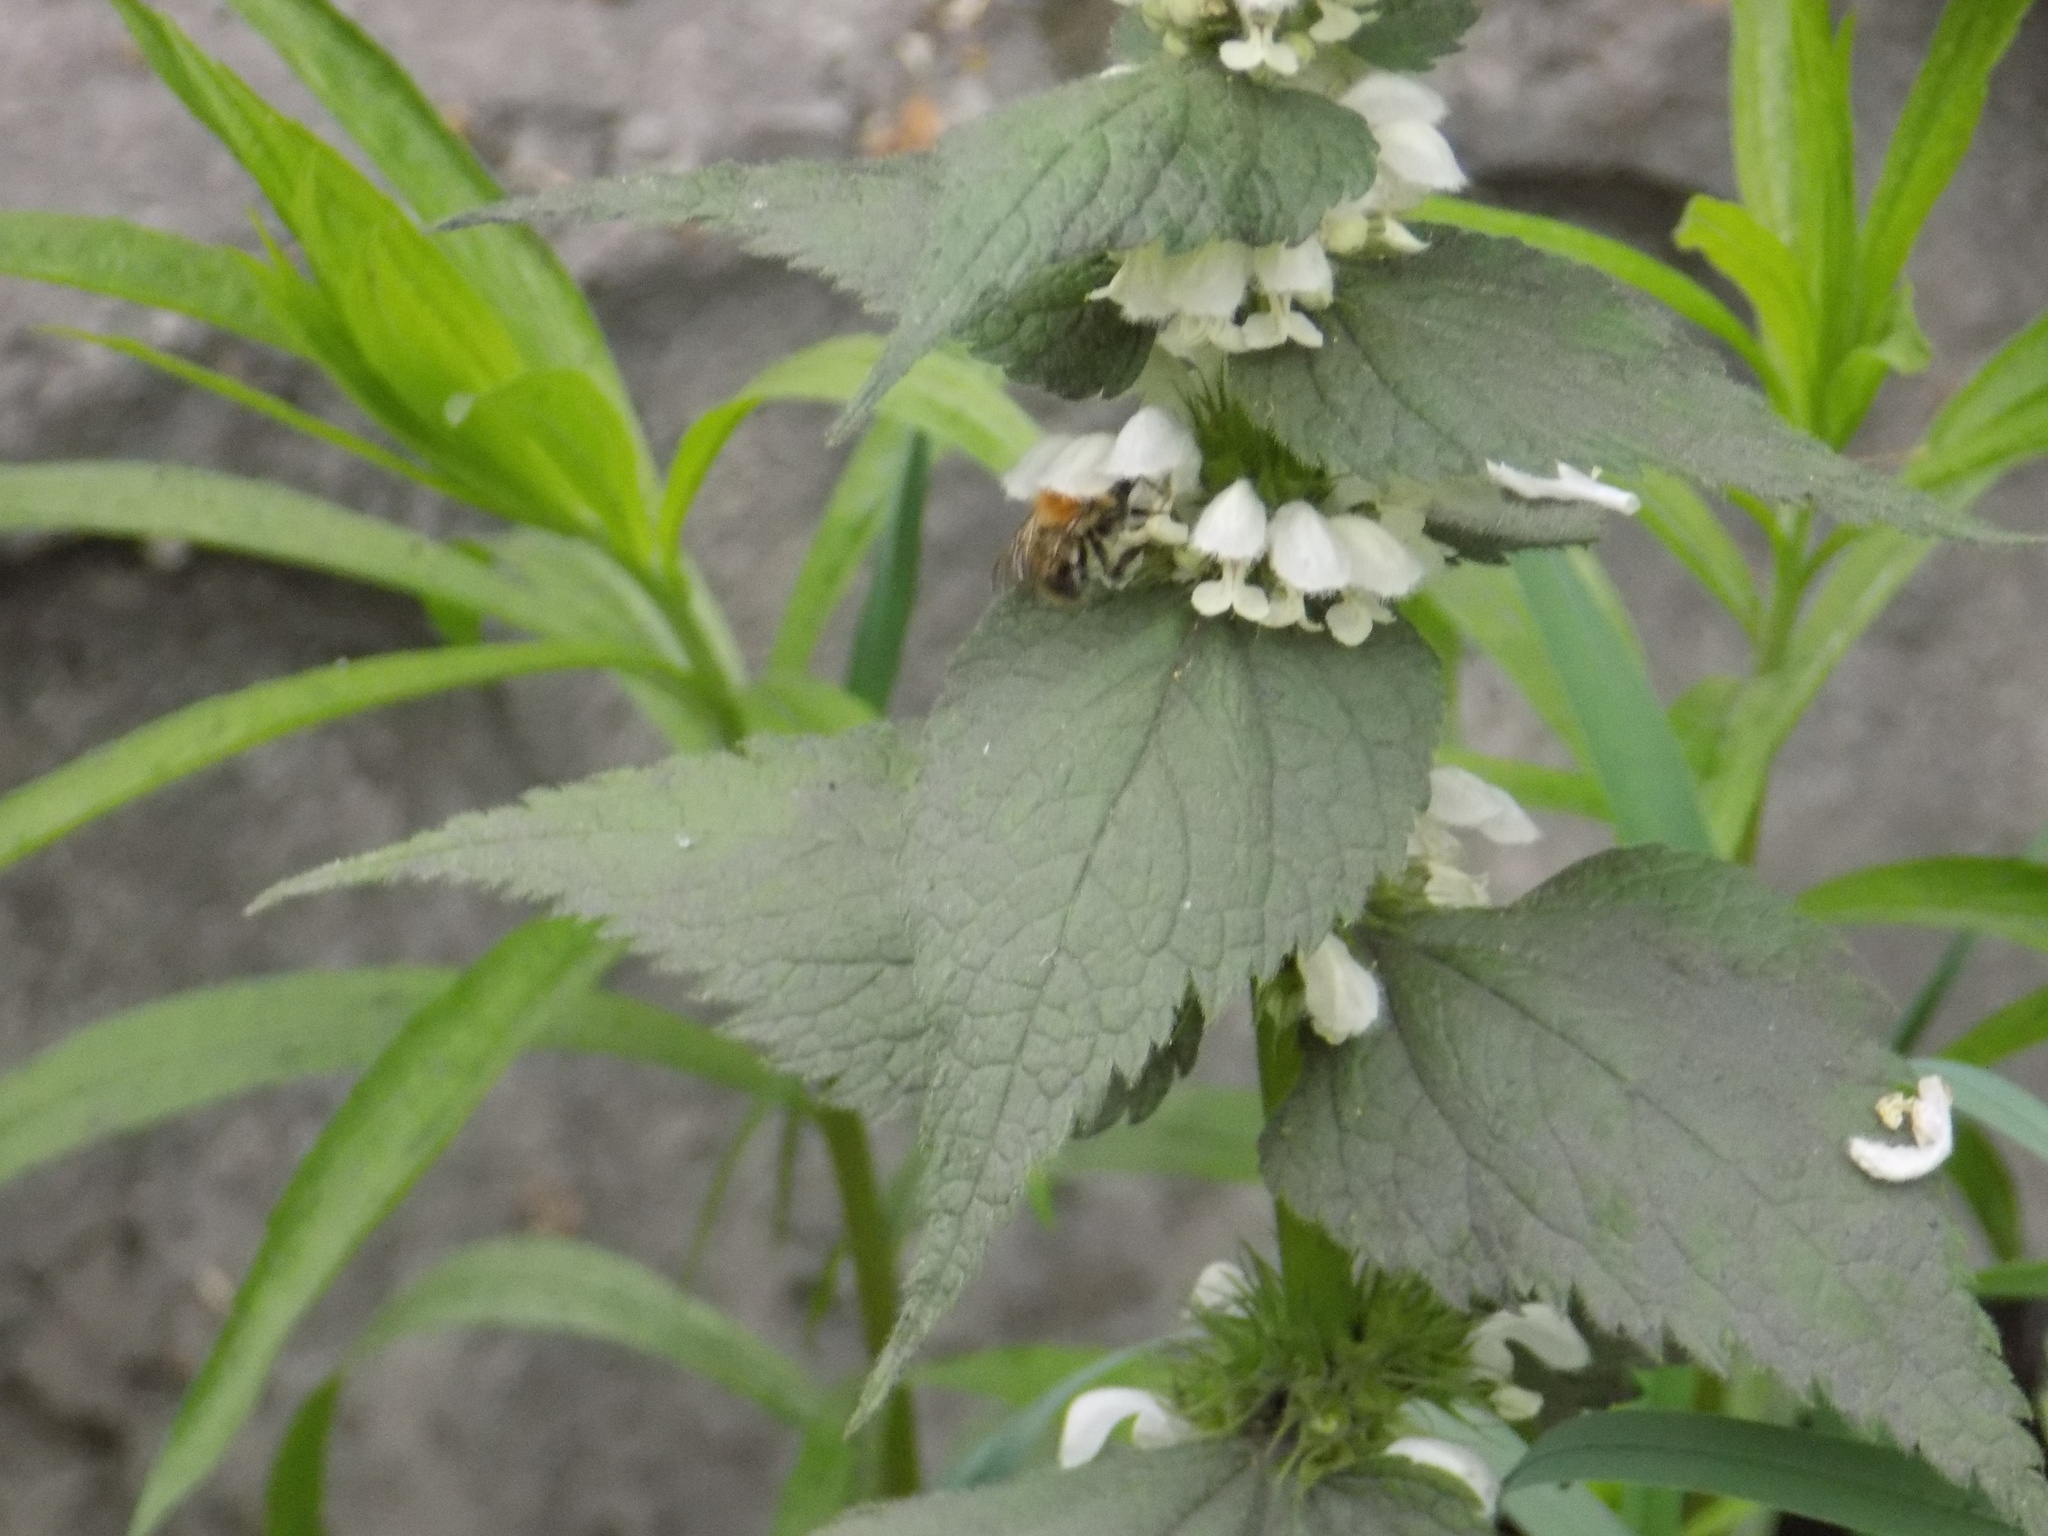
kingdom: Animalia
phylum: Arthropoda
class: Insecta
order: Hymenoptera
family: Apidae
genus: Bombus
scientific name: Bombus pascuorum
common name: Common carder bee
